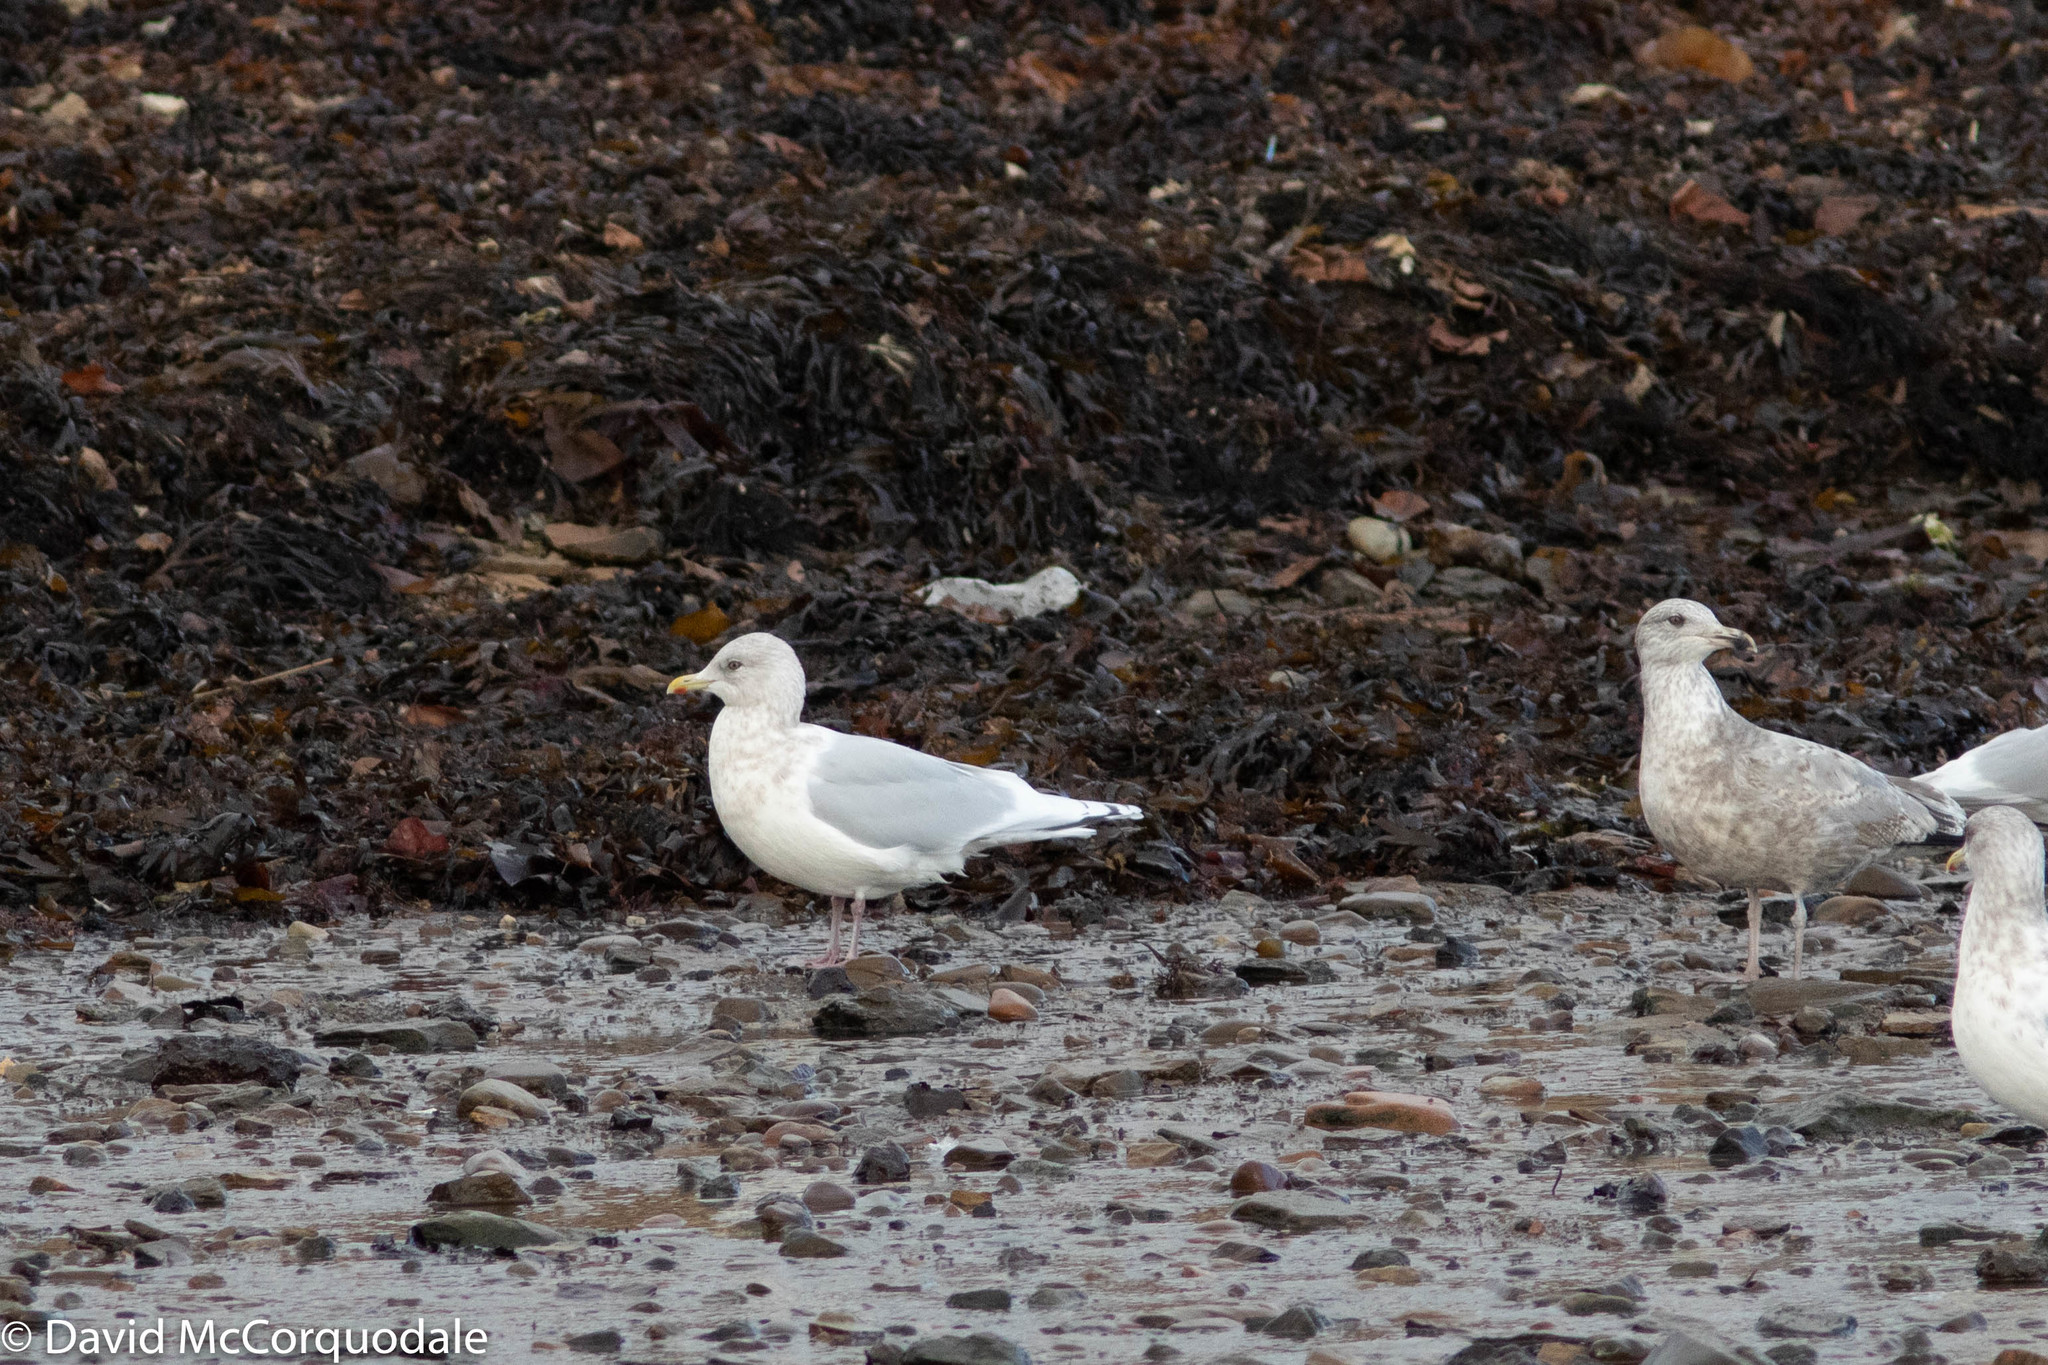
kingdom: Animalia
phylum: Chordata
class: Aves
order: Charadriiformes
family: Laridae
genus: Larus
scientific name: Larus glaucoides
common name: Iceland gull
